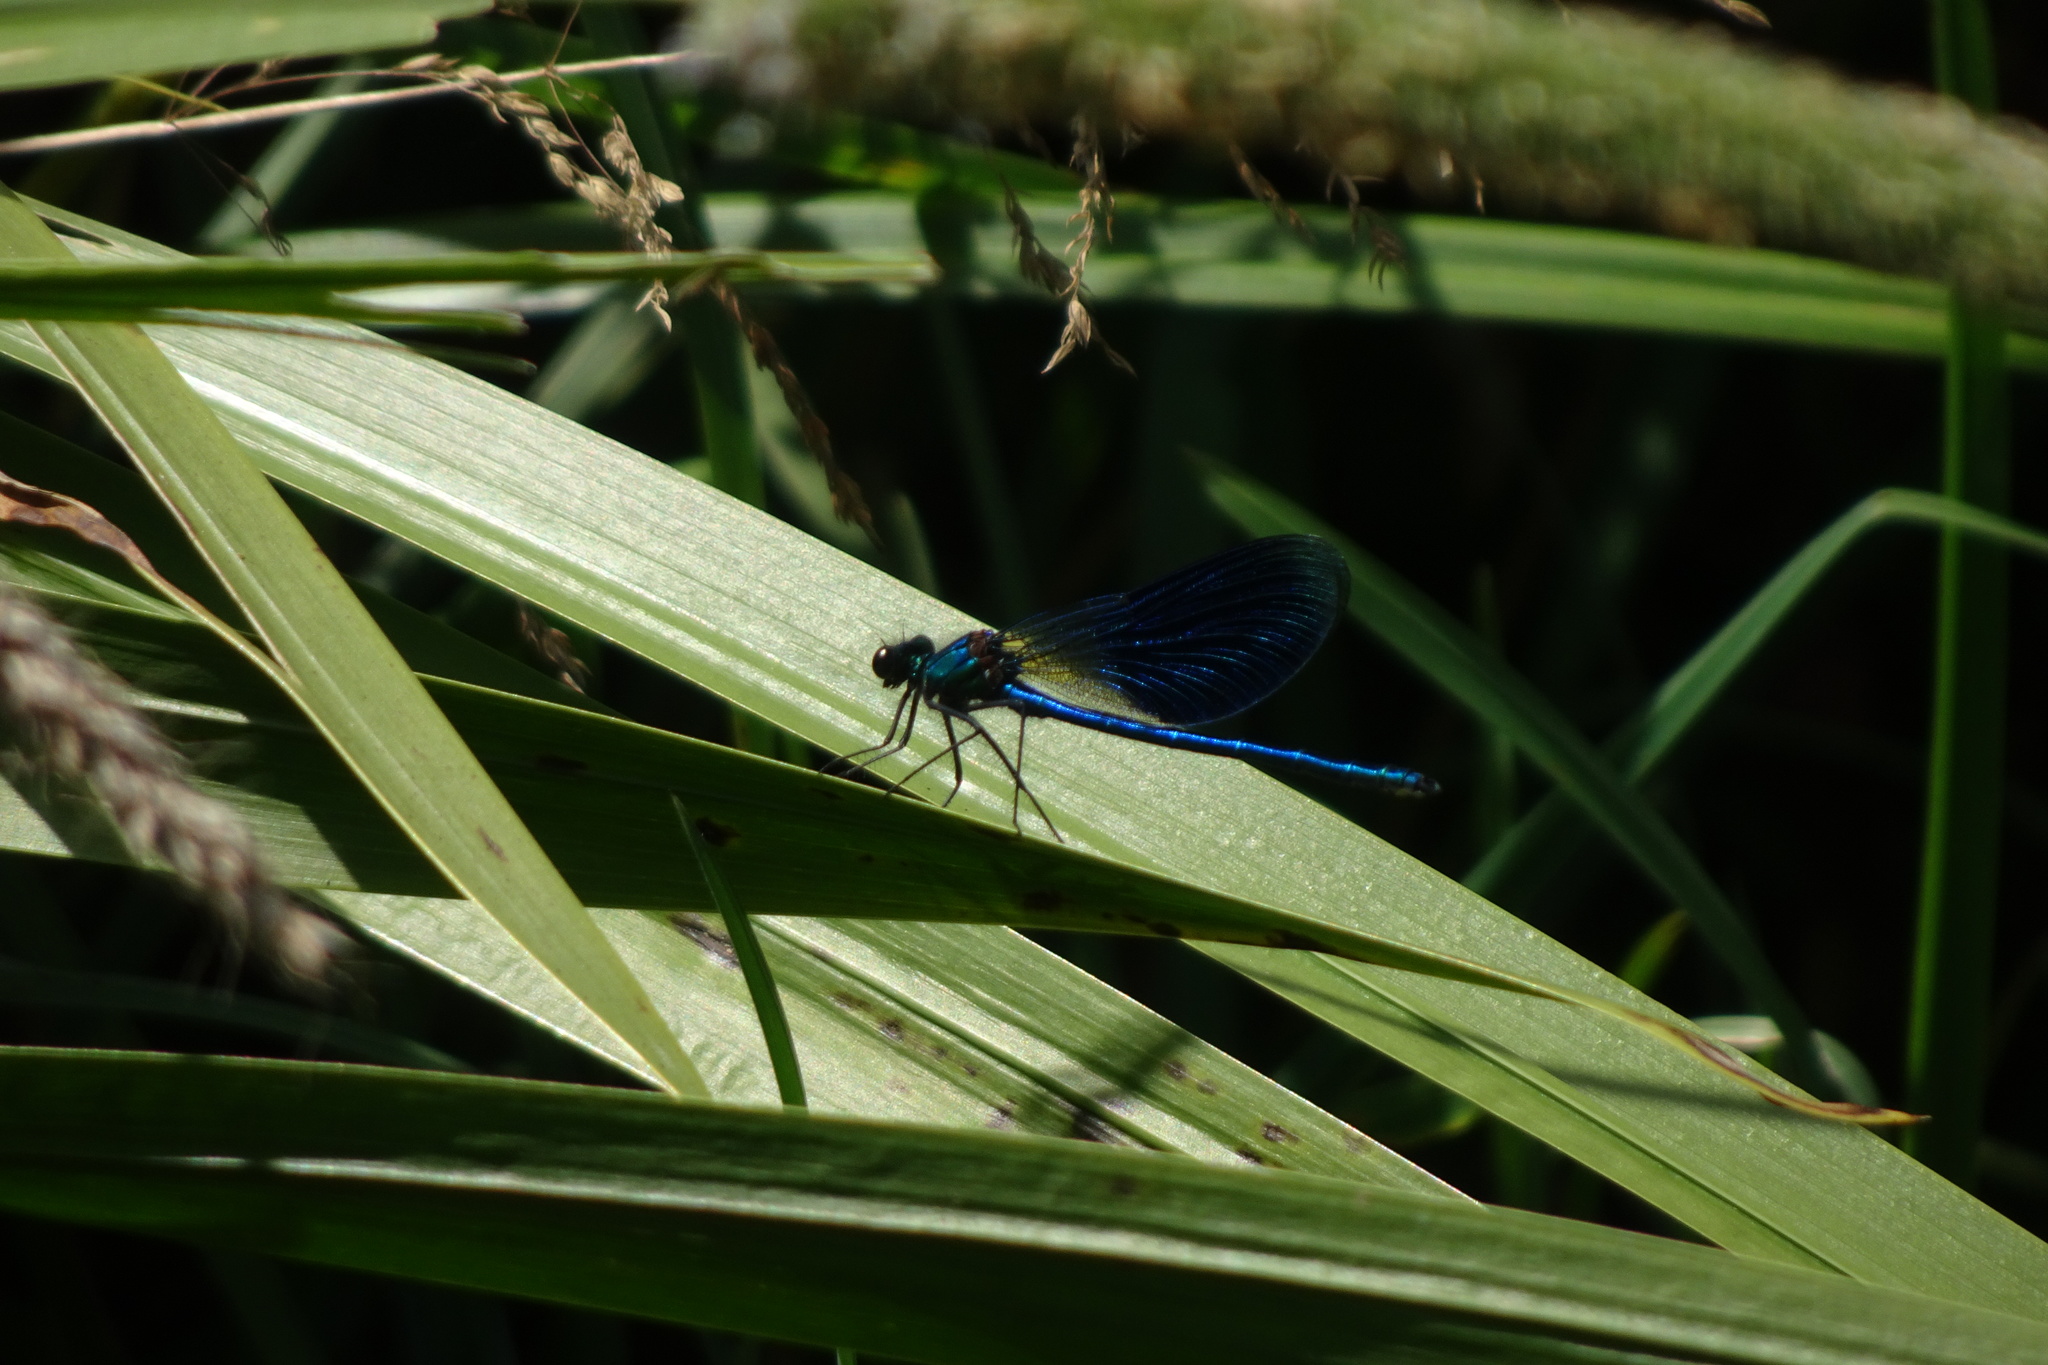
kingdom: Animalia
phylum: Arthropoda
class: Insecta
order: Odonata
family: Calopterygidae
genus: Calopteryx
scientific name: Calopteryx splendens
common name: Banded demoiselle
